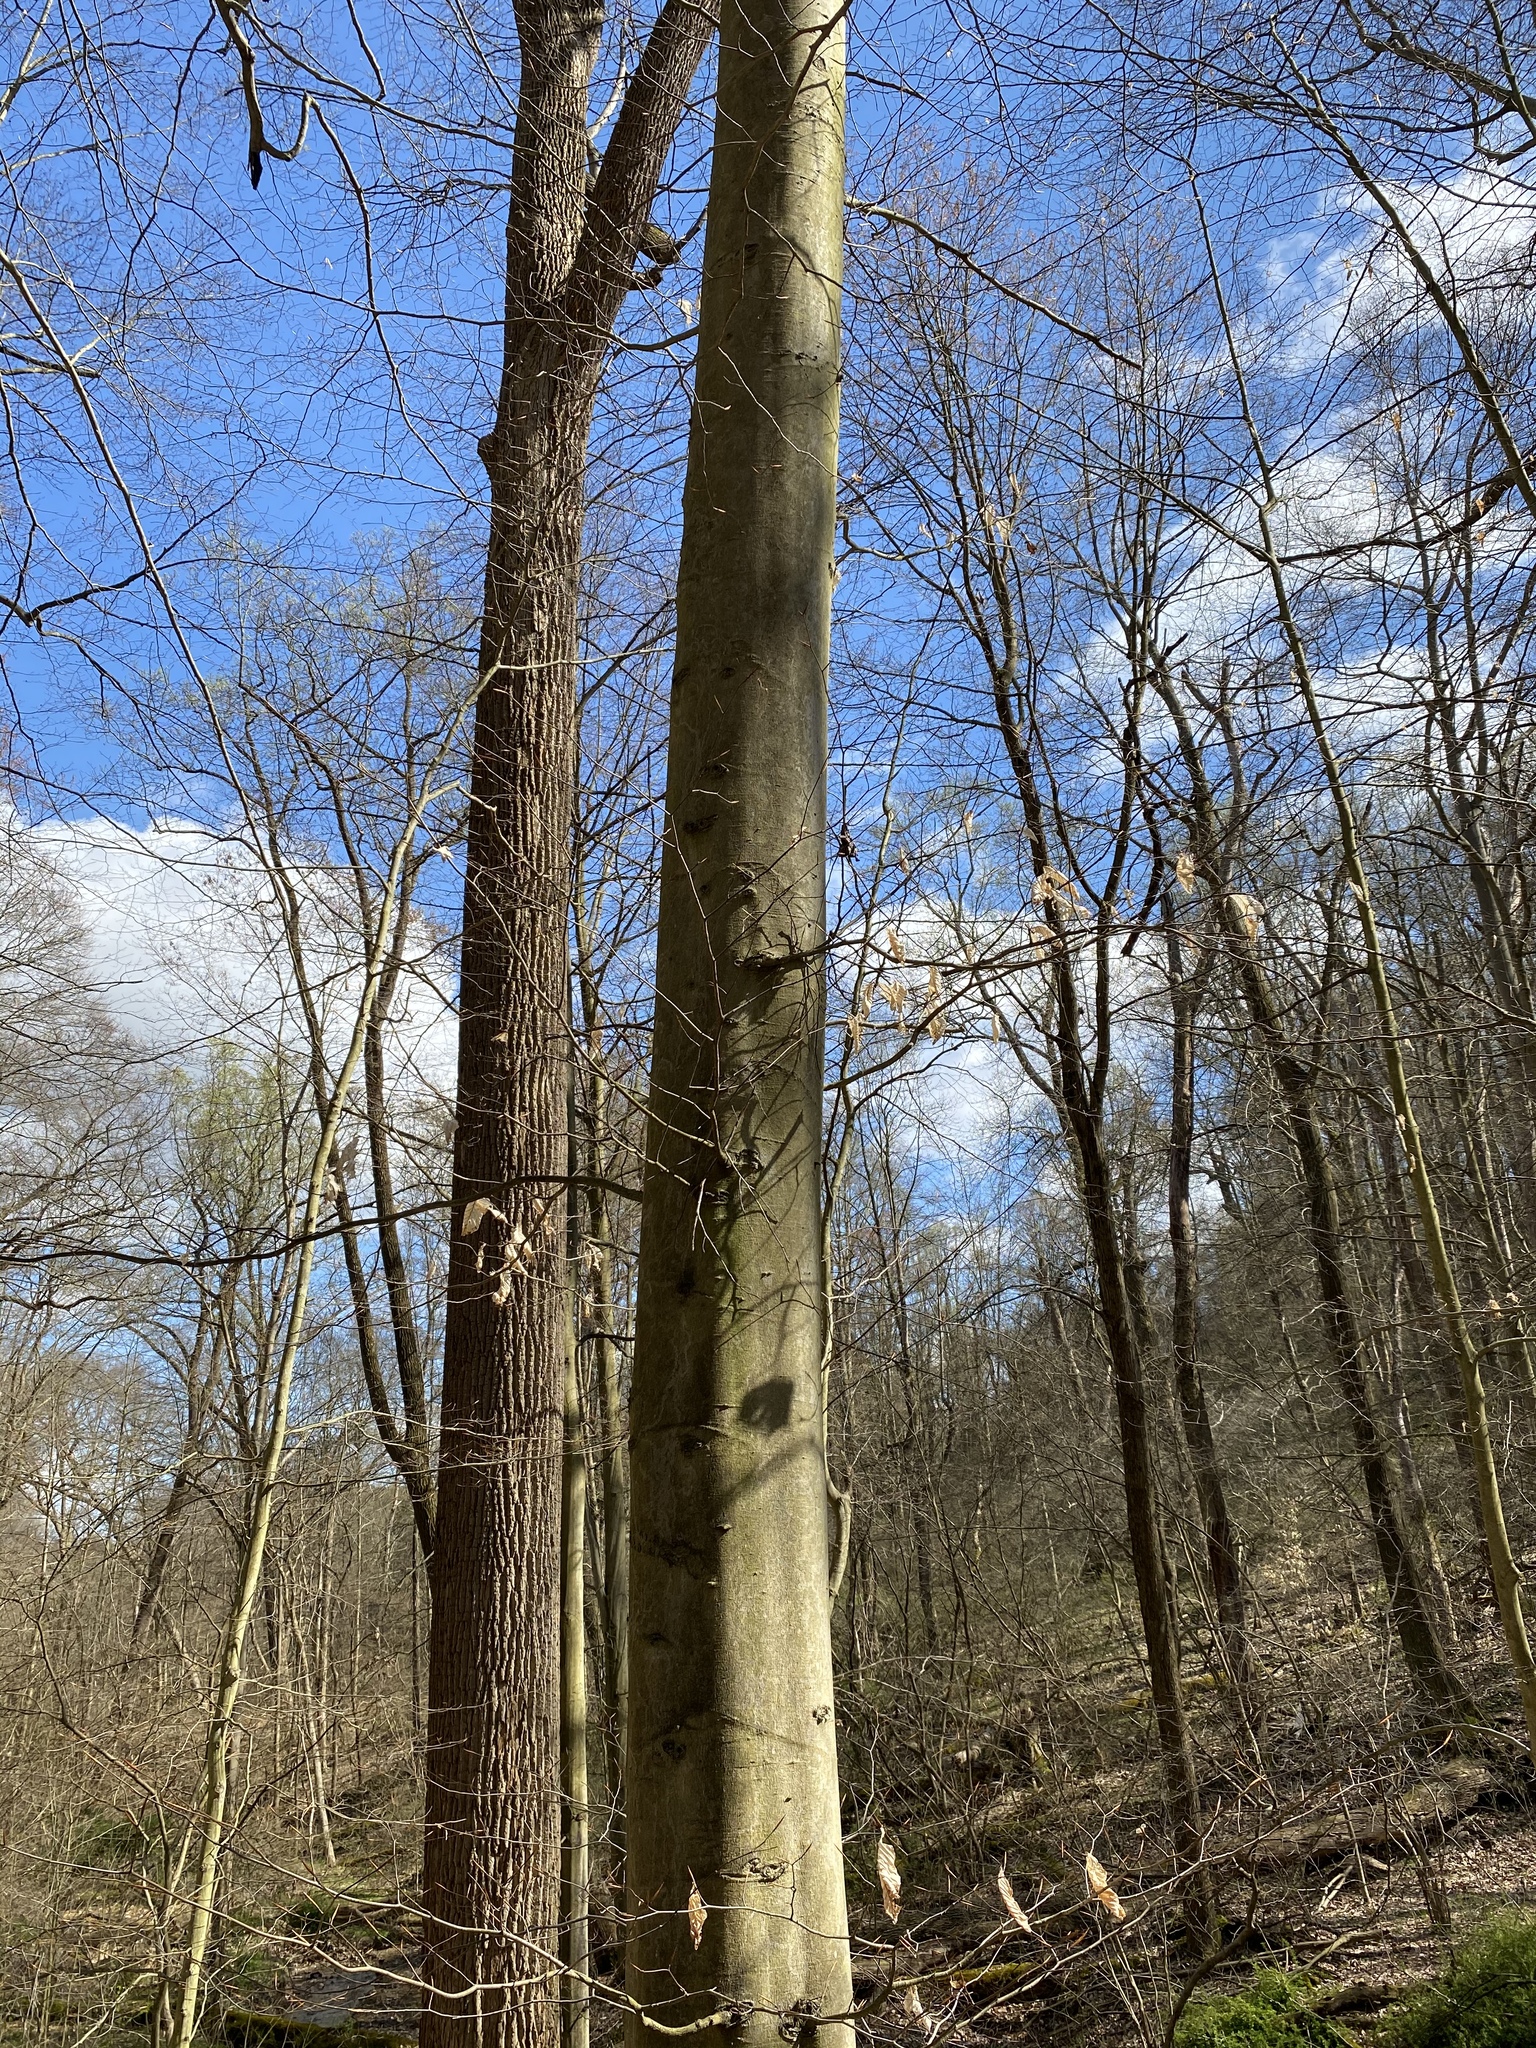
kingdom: Plantae
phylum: Tracheophyta
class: Magnoliopsida
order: Fagales
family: Fagaceae
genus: Fagus
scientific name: Fagus grandifolia
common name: American beech
